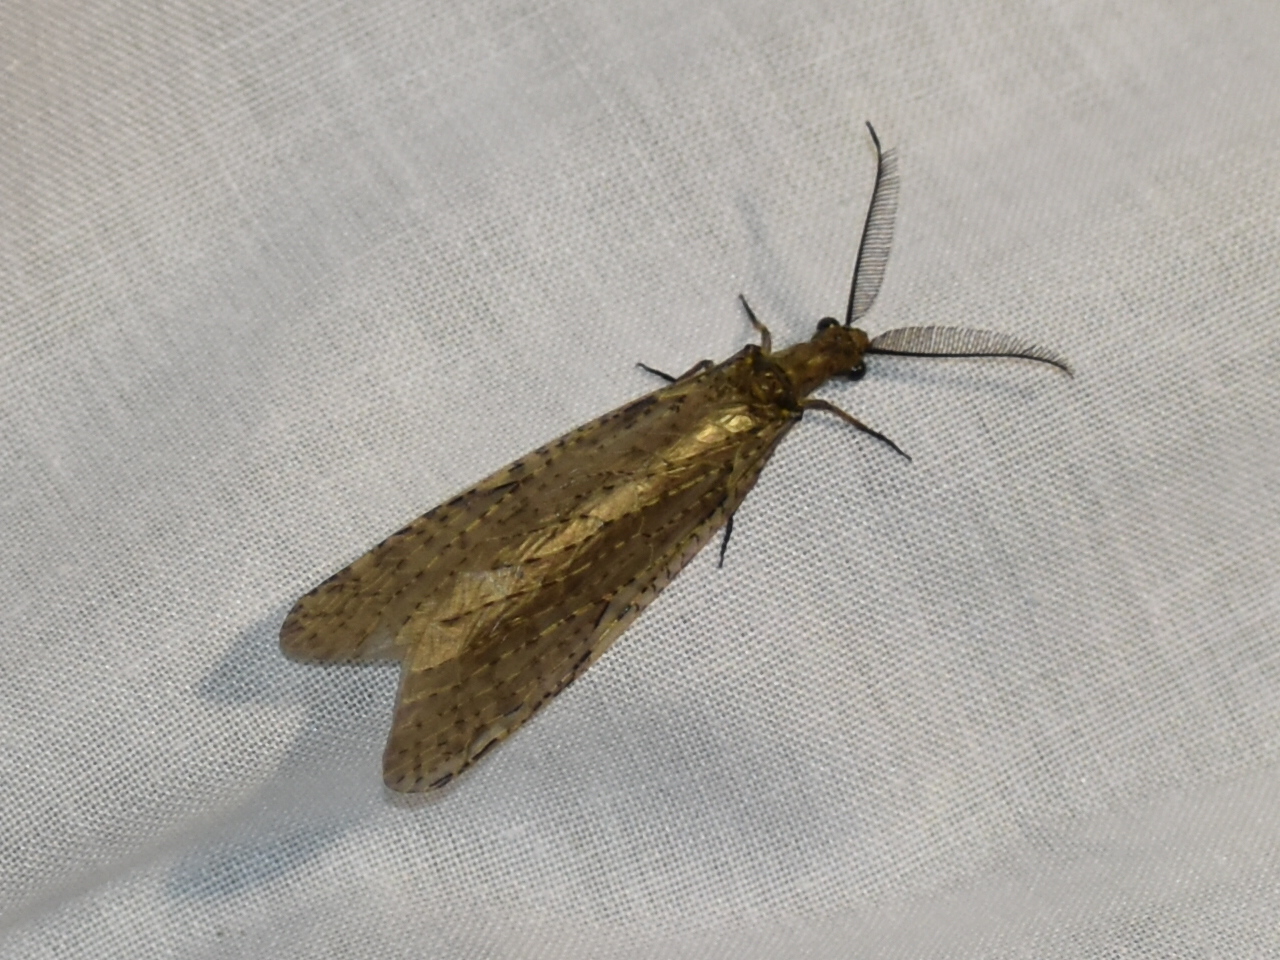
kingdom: Animalia
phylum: Arthropoda
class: Insecta
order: Megaloptera
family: Corydalidae
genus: Chauliodes
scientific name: Chauliodes rastricornis
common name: Spring fishfly
